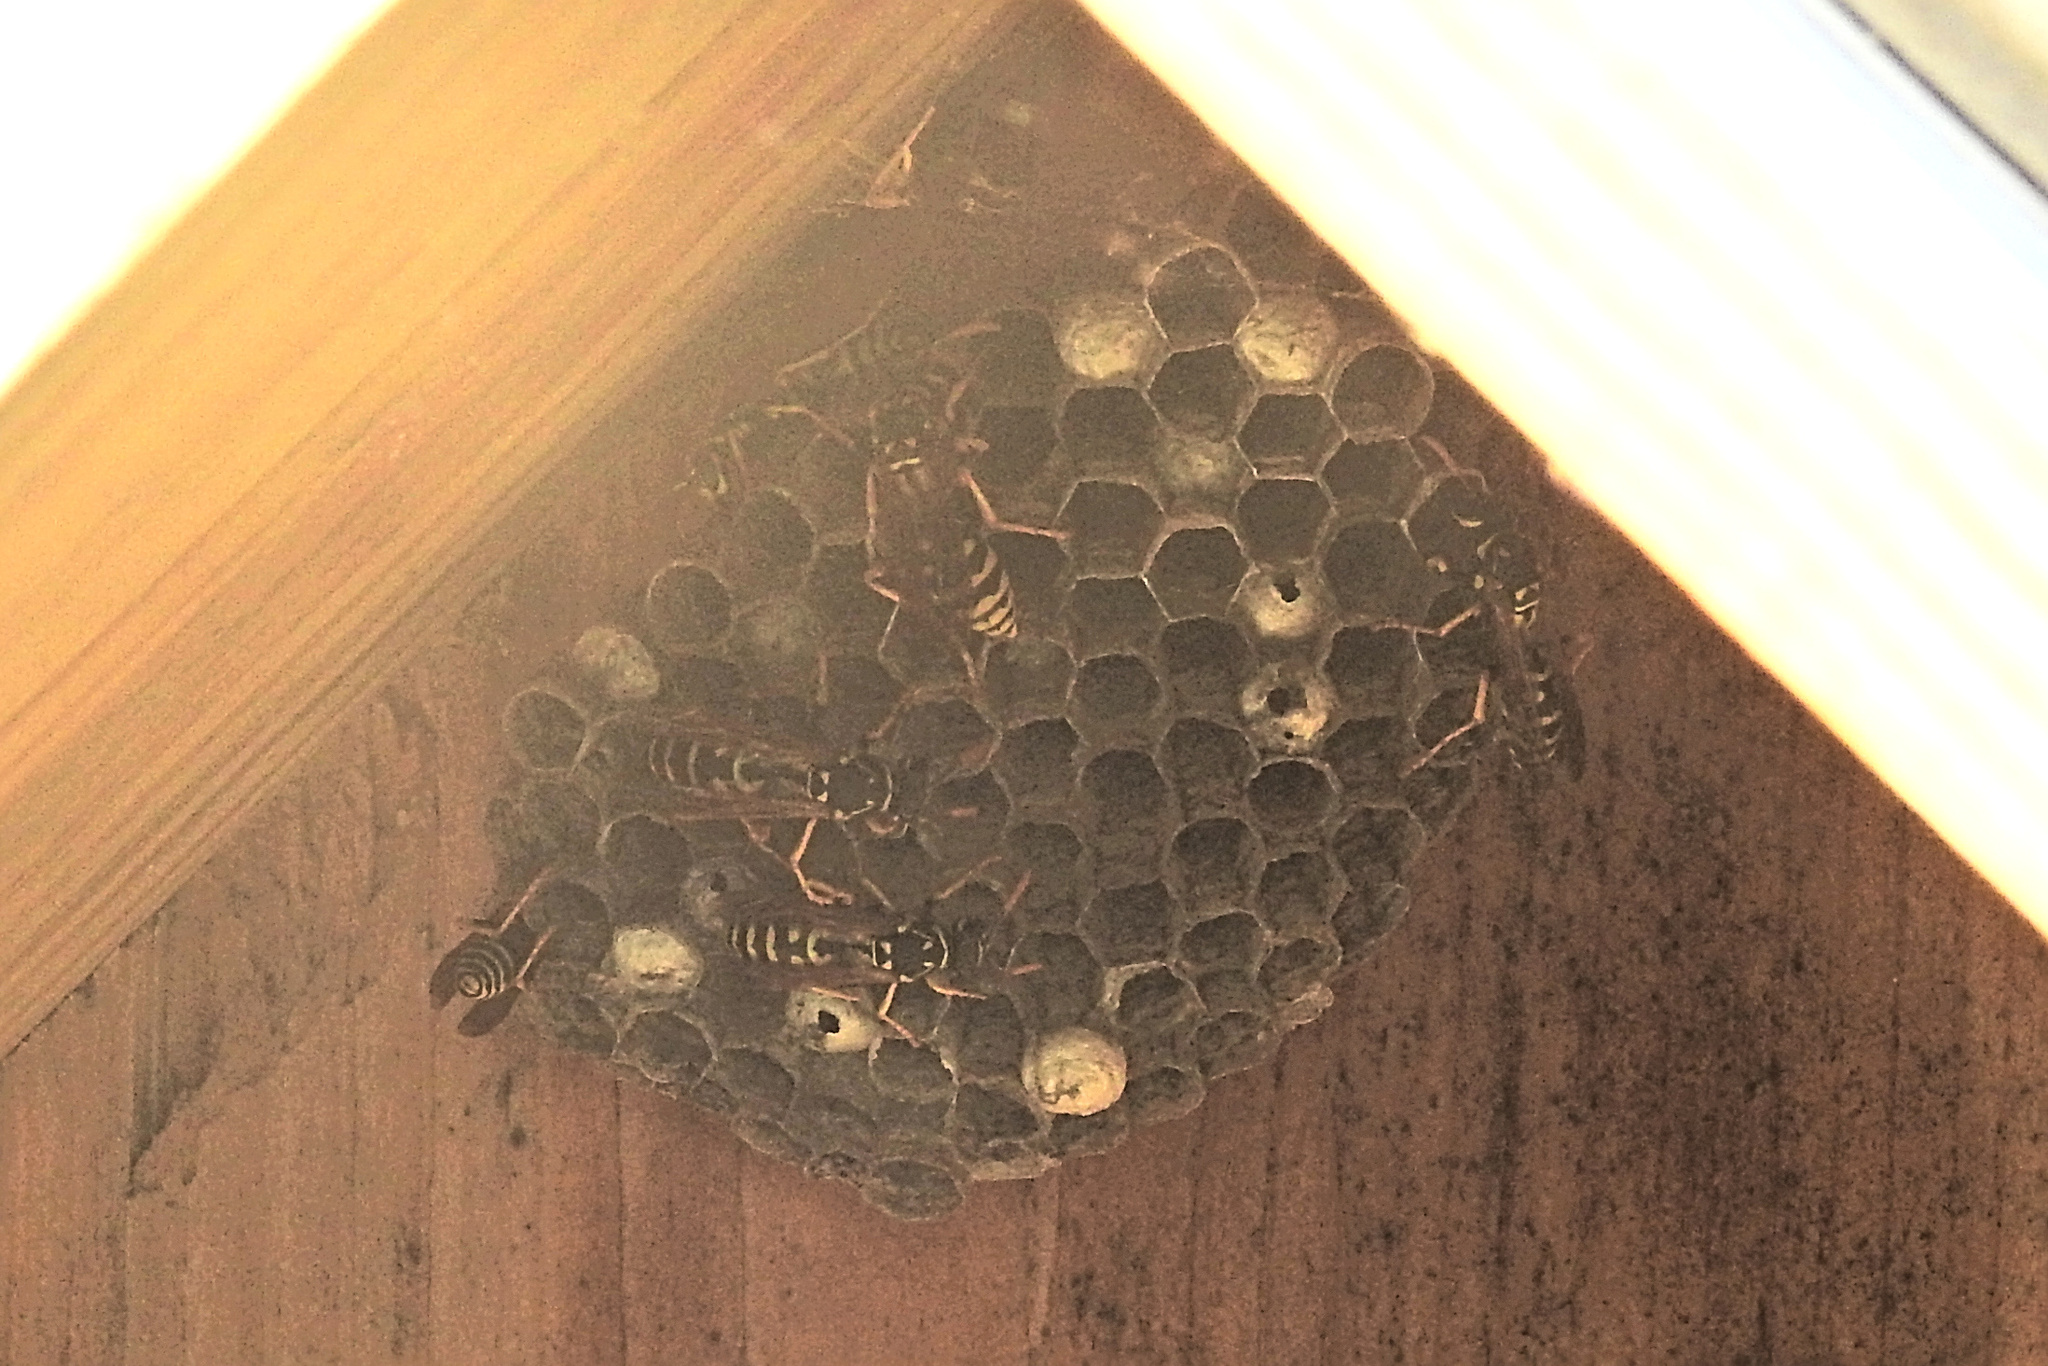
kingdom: Animalia
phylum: Arthropoda
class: Insecta
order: Hymenoptera
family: Eumenidae
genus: Polistes
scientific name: Polistes dominula
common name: Paper wasp
